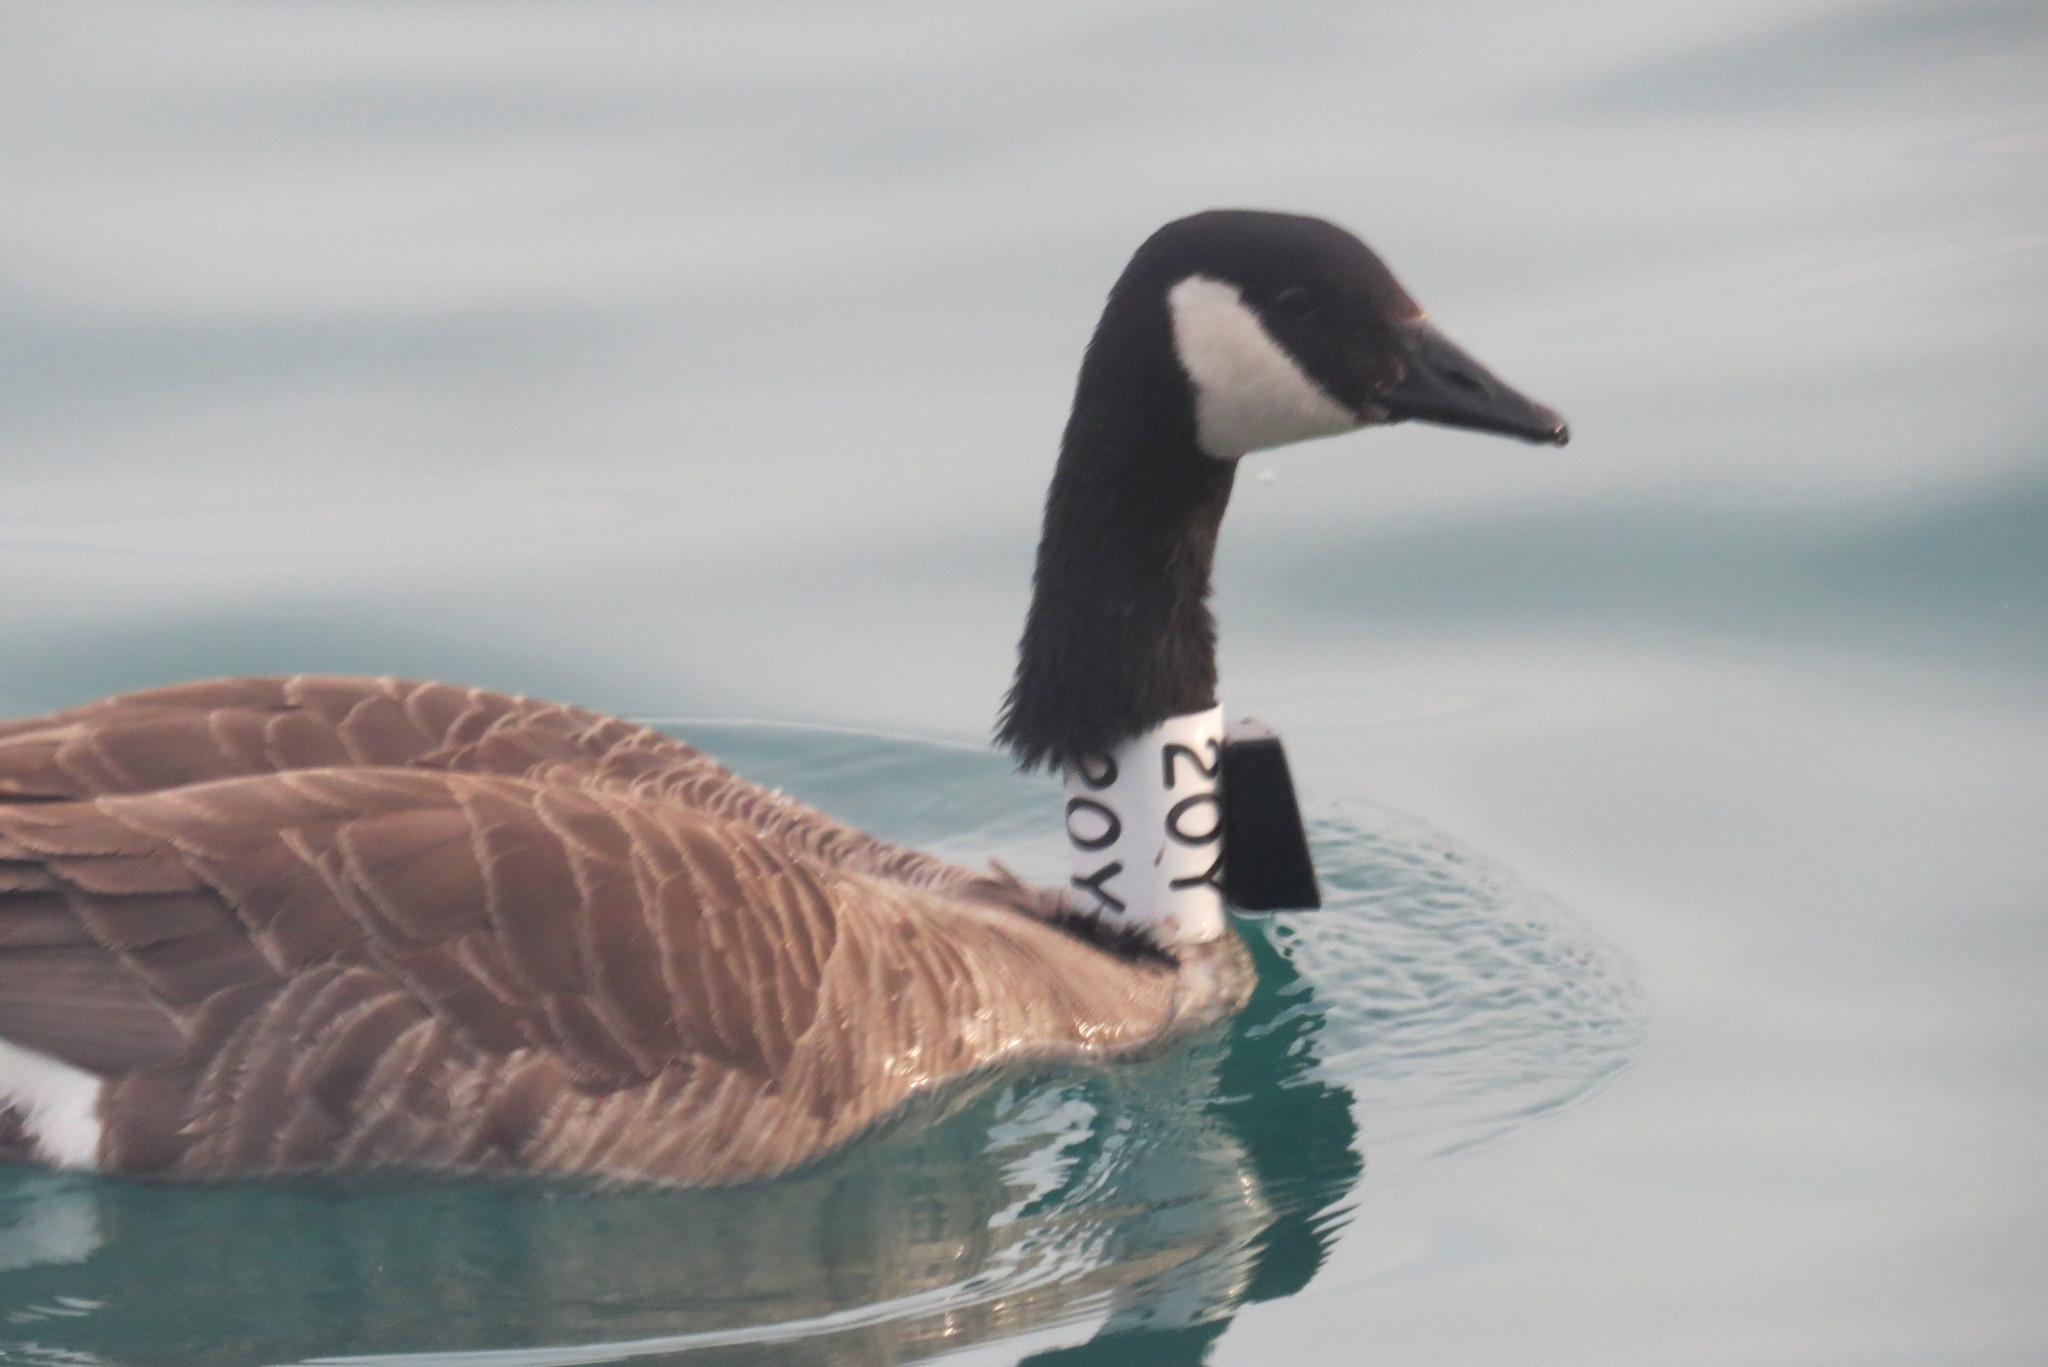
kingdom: Animalia
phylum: Chordata
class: Aves
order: Anseriformes
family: Anatidae
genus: Branta
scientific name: Branta canadensis
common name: Canada goose
